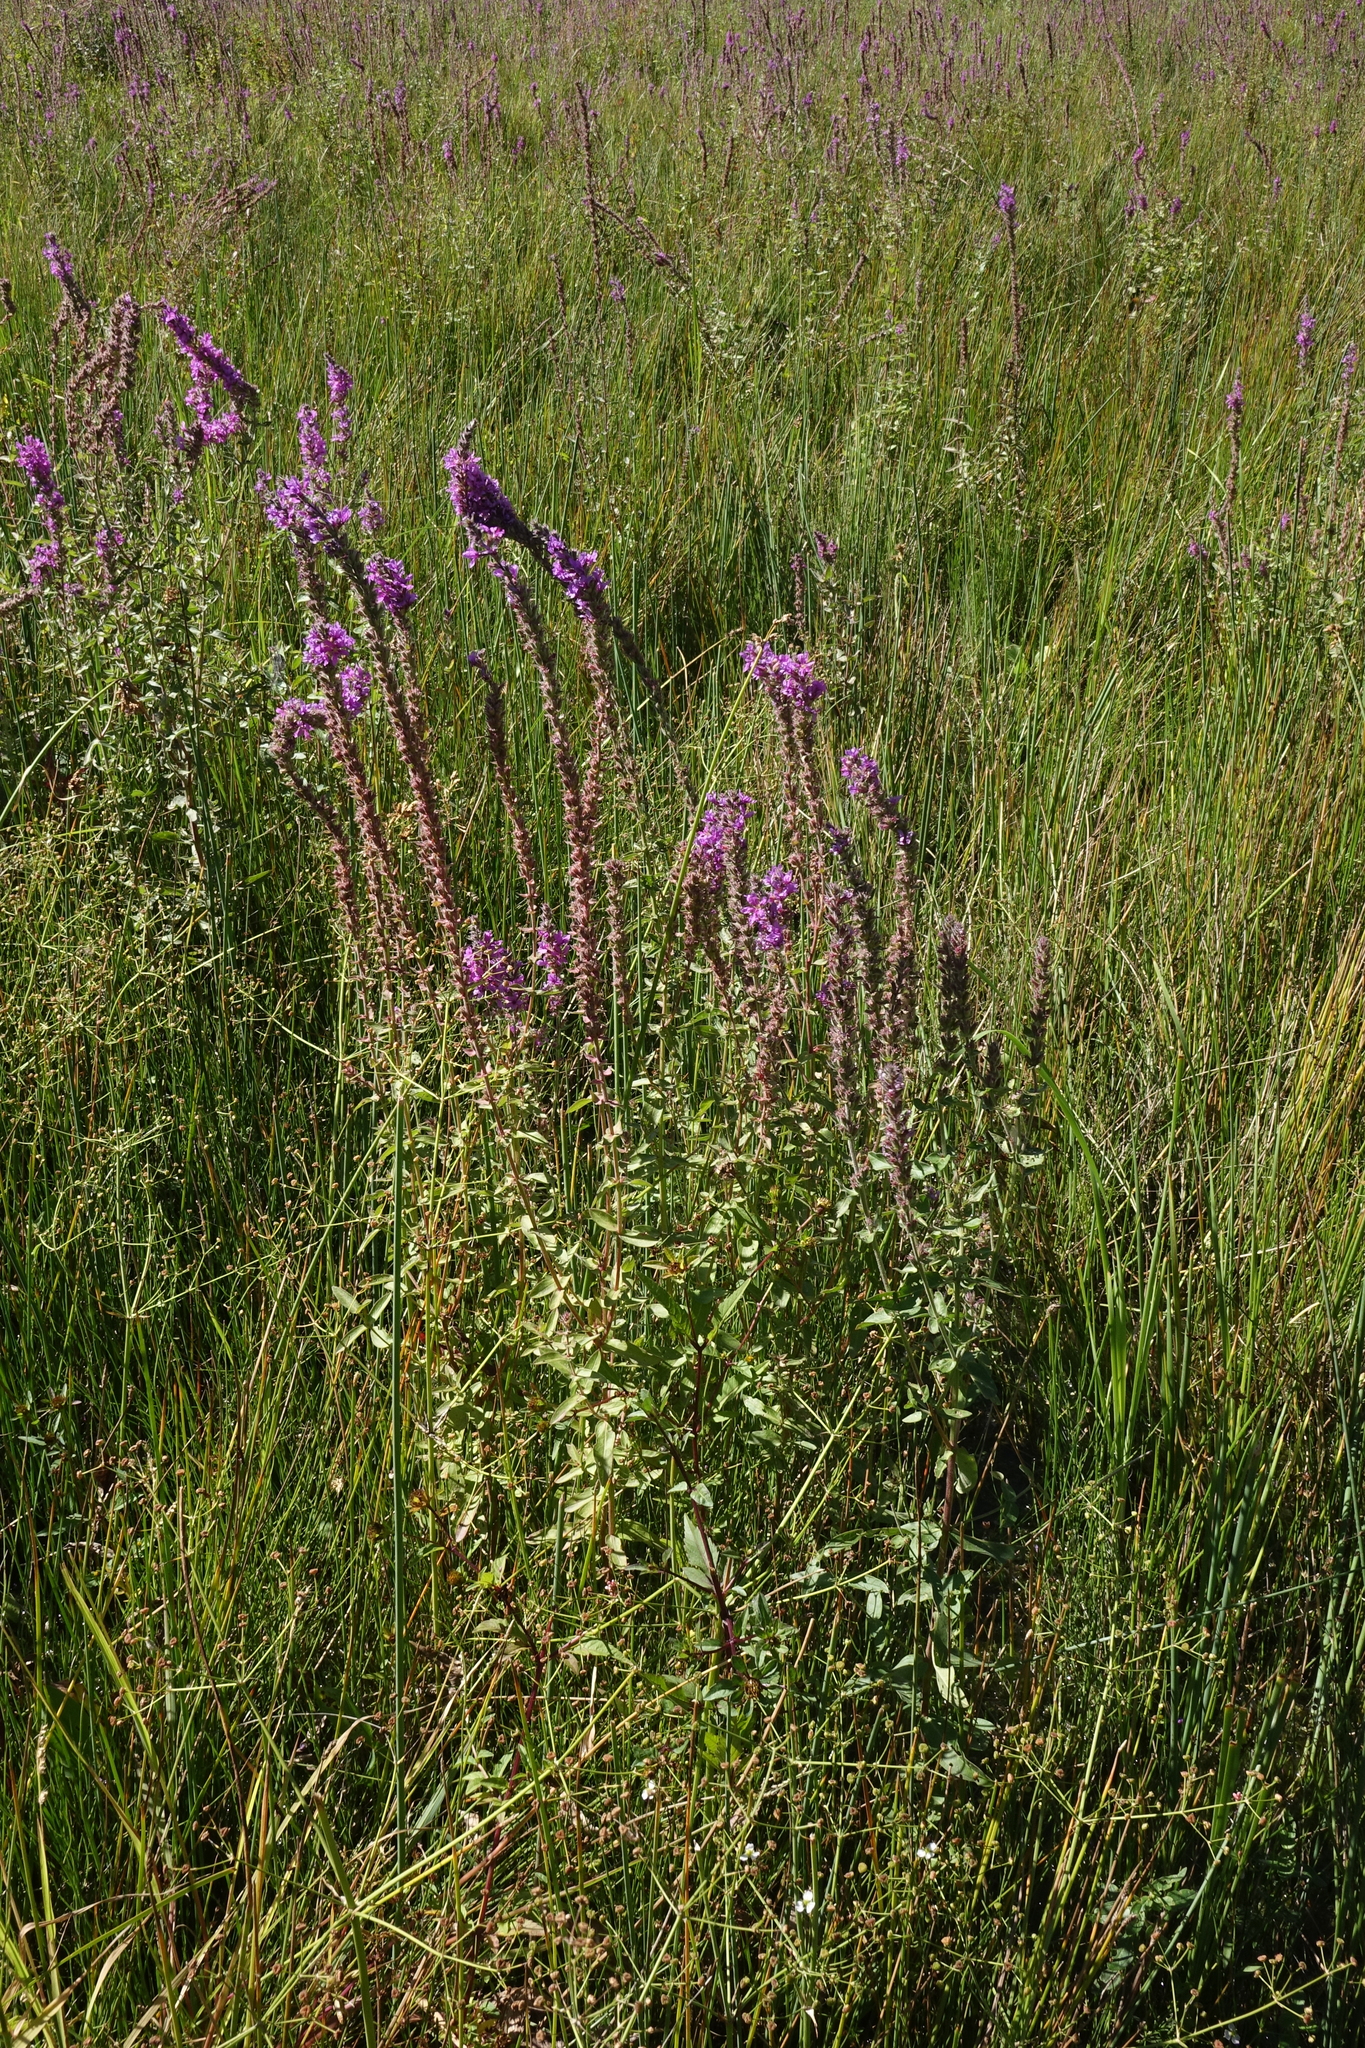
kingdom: Plantae
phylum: Tracheophyta
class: Magnoliopsida
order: Myrtales
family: Lythraceae
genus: Lythrum
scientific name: Lythrum salicaria
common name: Purple loosestrife
